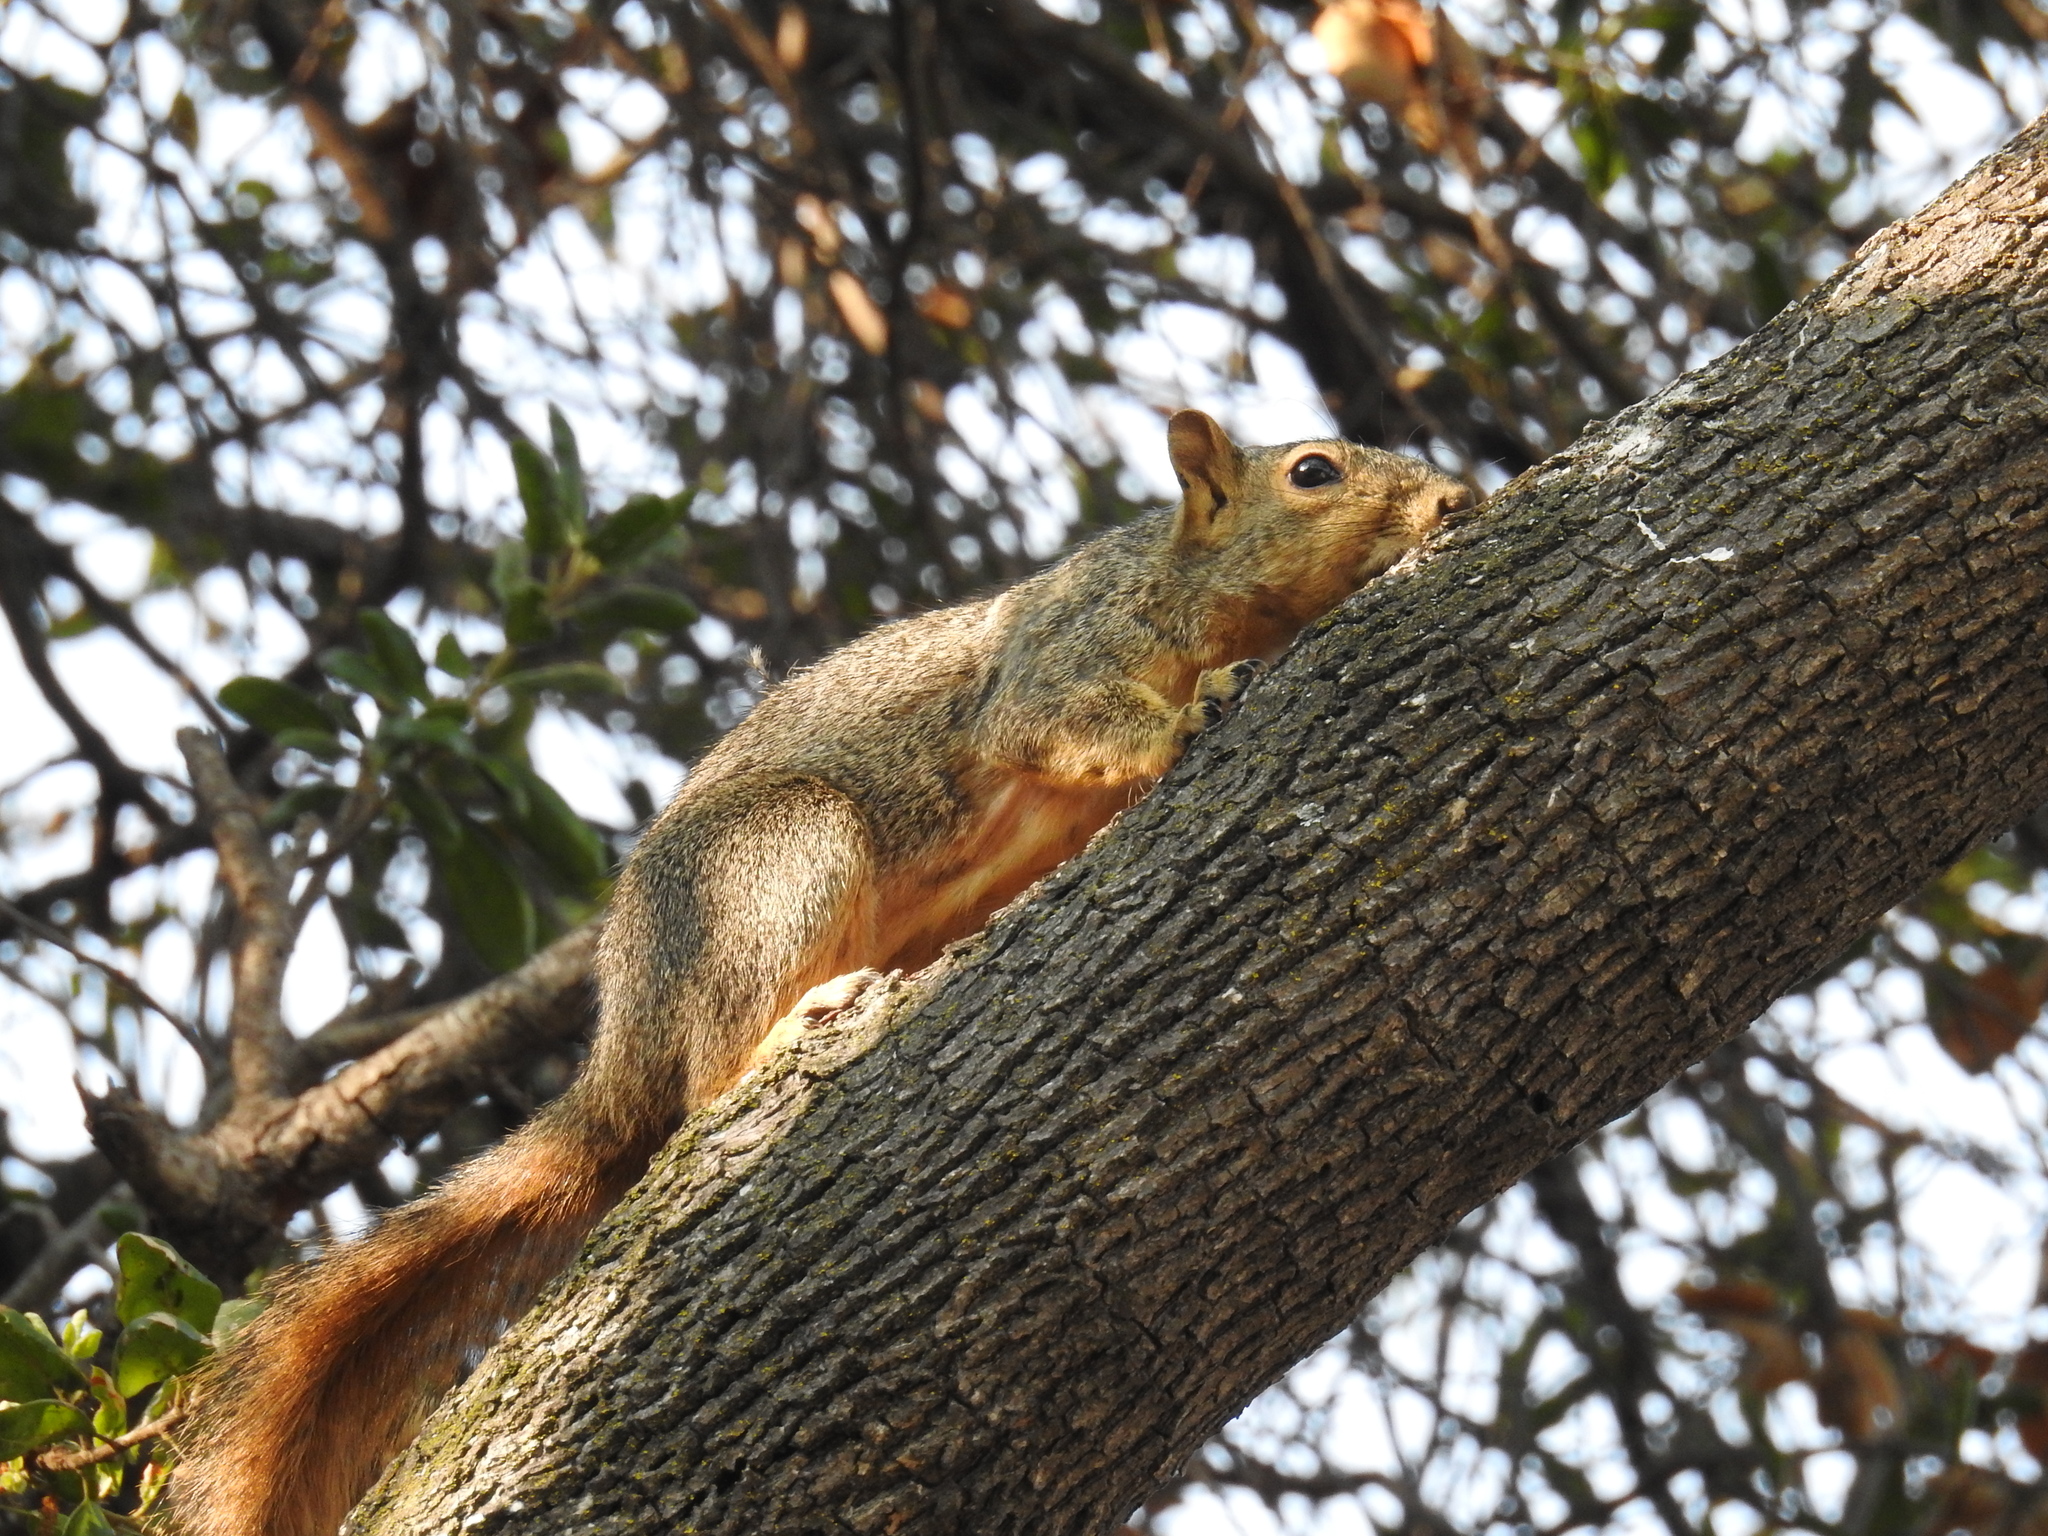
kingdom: Animalia
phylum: Chordata
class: Mammalia
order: Rodentia
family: Sciuridae
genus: Sciurus
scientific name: Sciurus niger
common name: Fox squirrel
